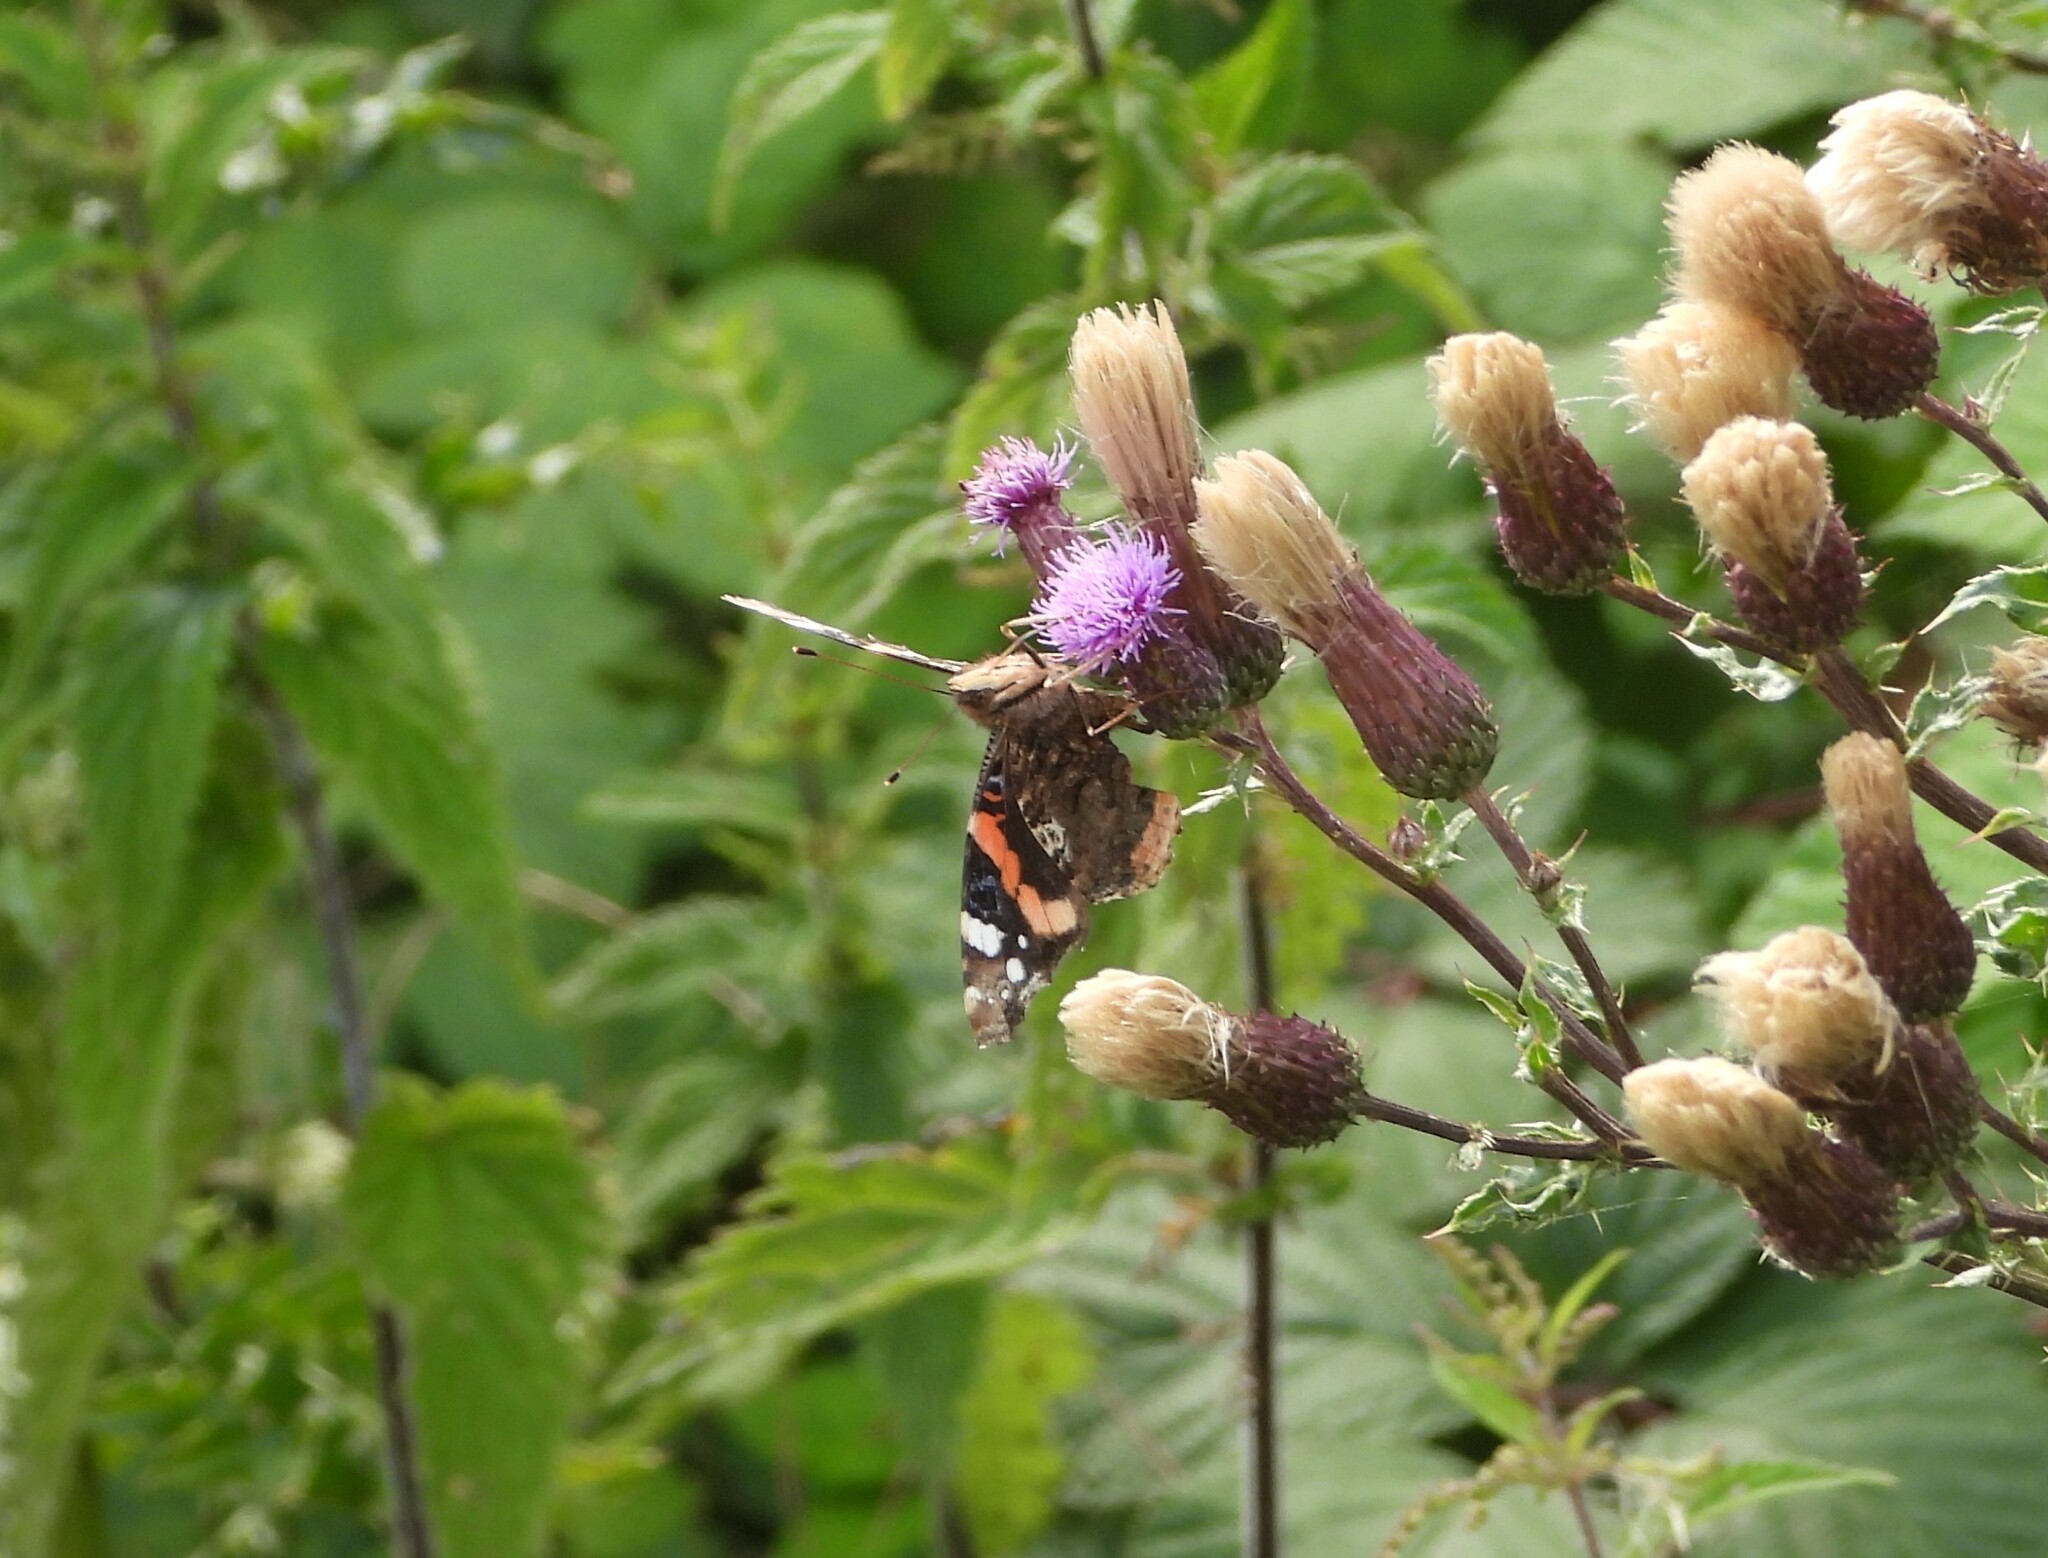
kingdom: Animalia
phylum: Arthropoda
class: Insecta
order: Lepidoptera
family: Nymphalidae
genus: Vanessa
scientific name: Vanessa atalanta
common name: Red admiral
